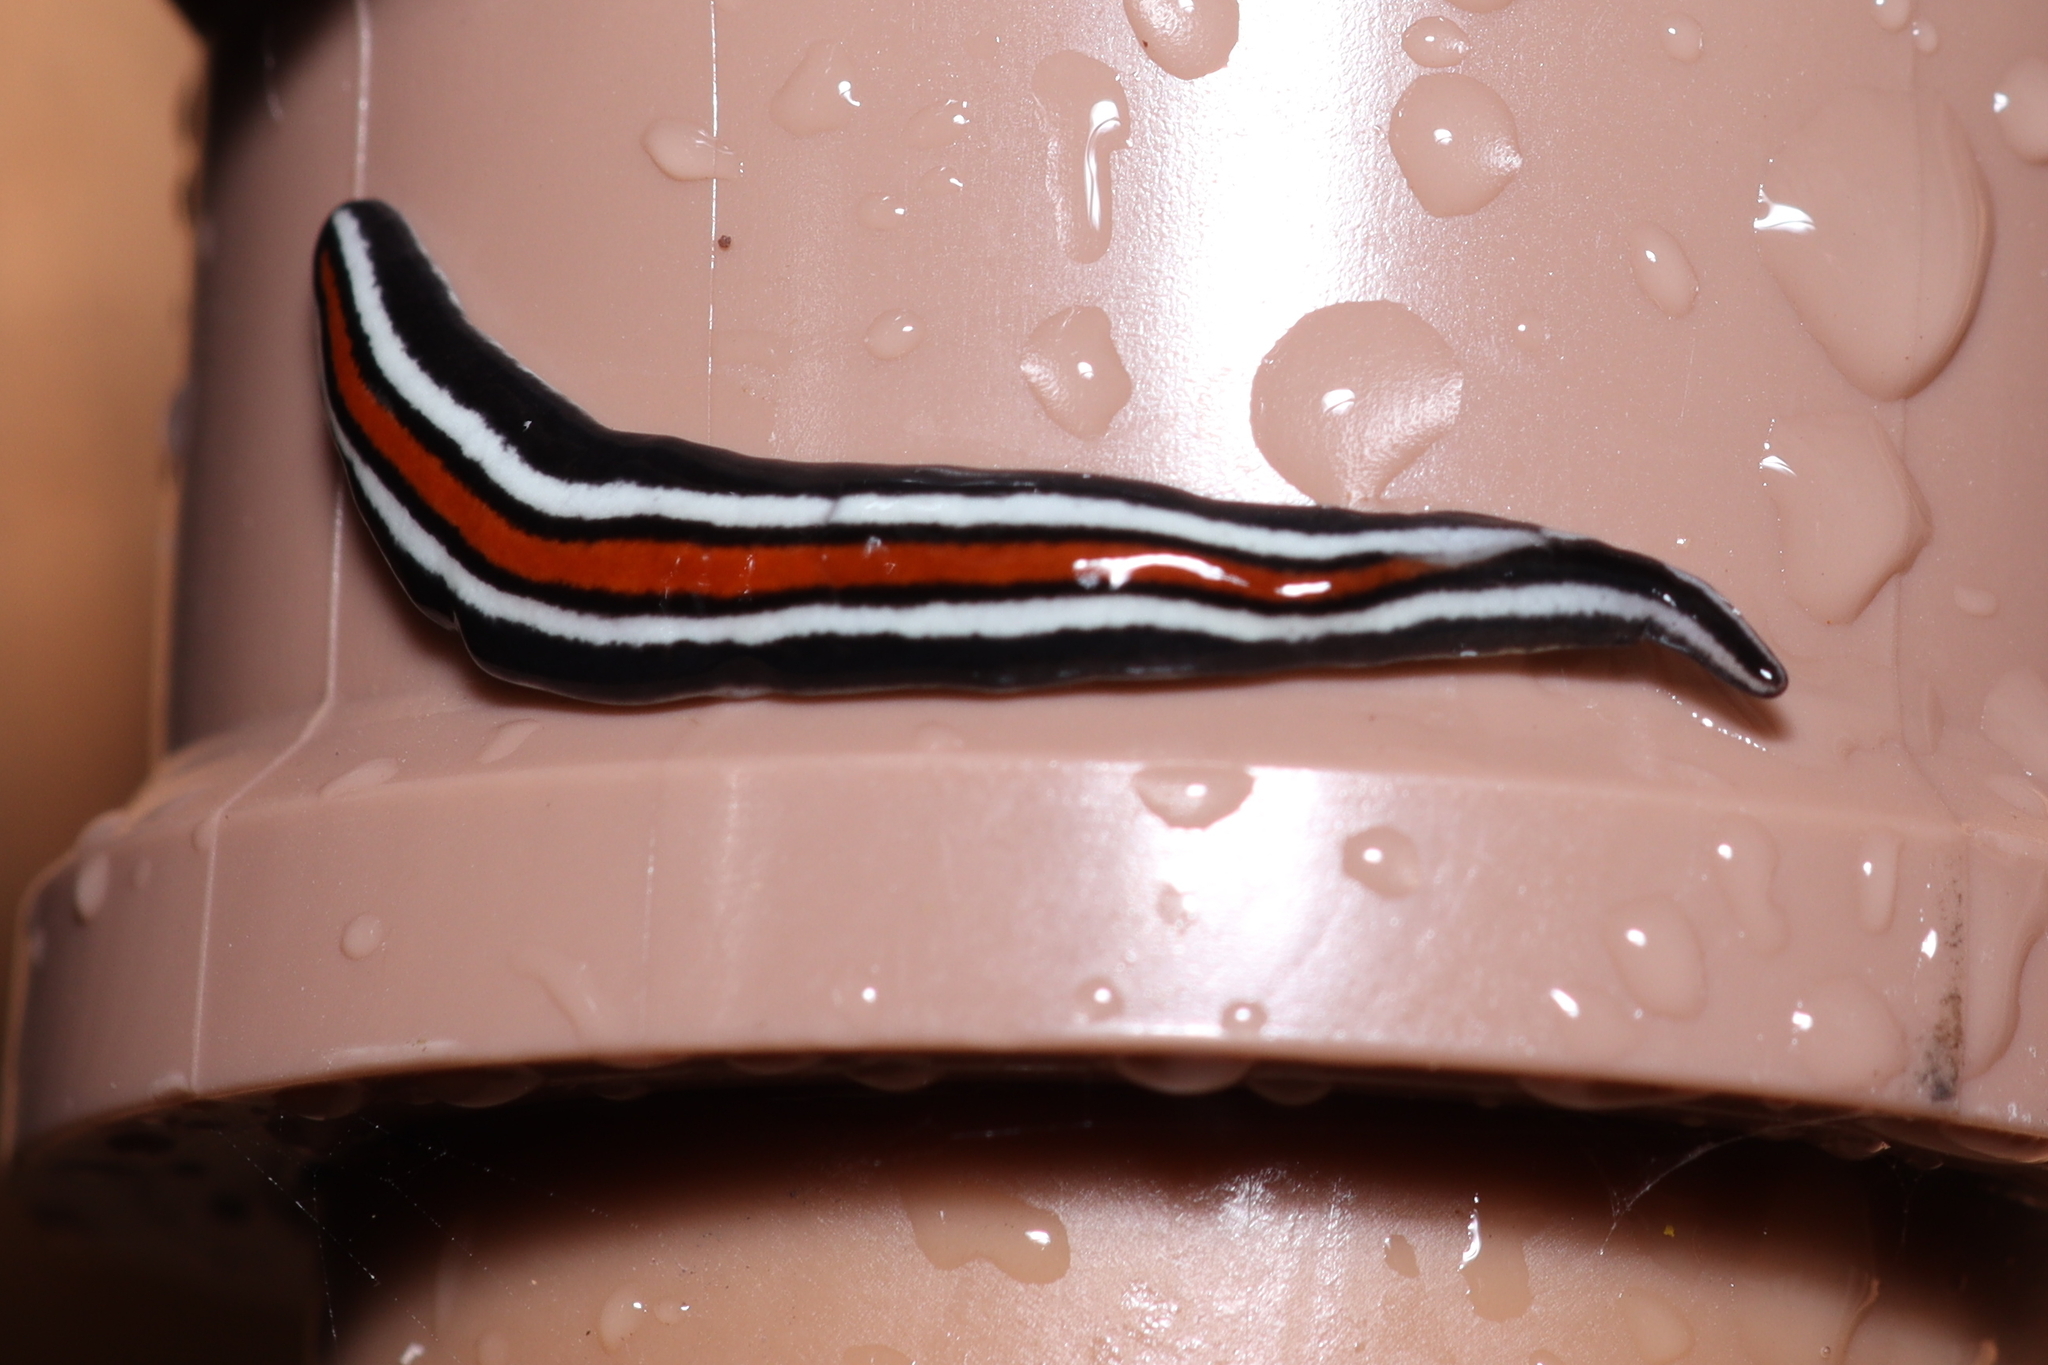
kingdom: Animalia
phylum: Platyhelminthes
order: Tricladida
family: Geoplanidae
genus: Geoplana
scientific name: Geoplana piratininga
